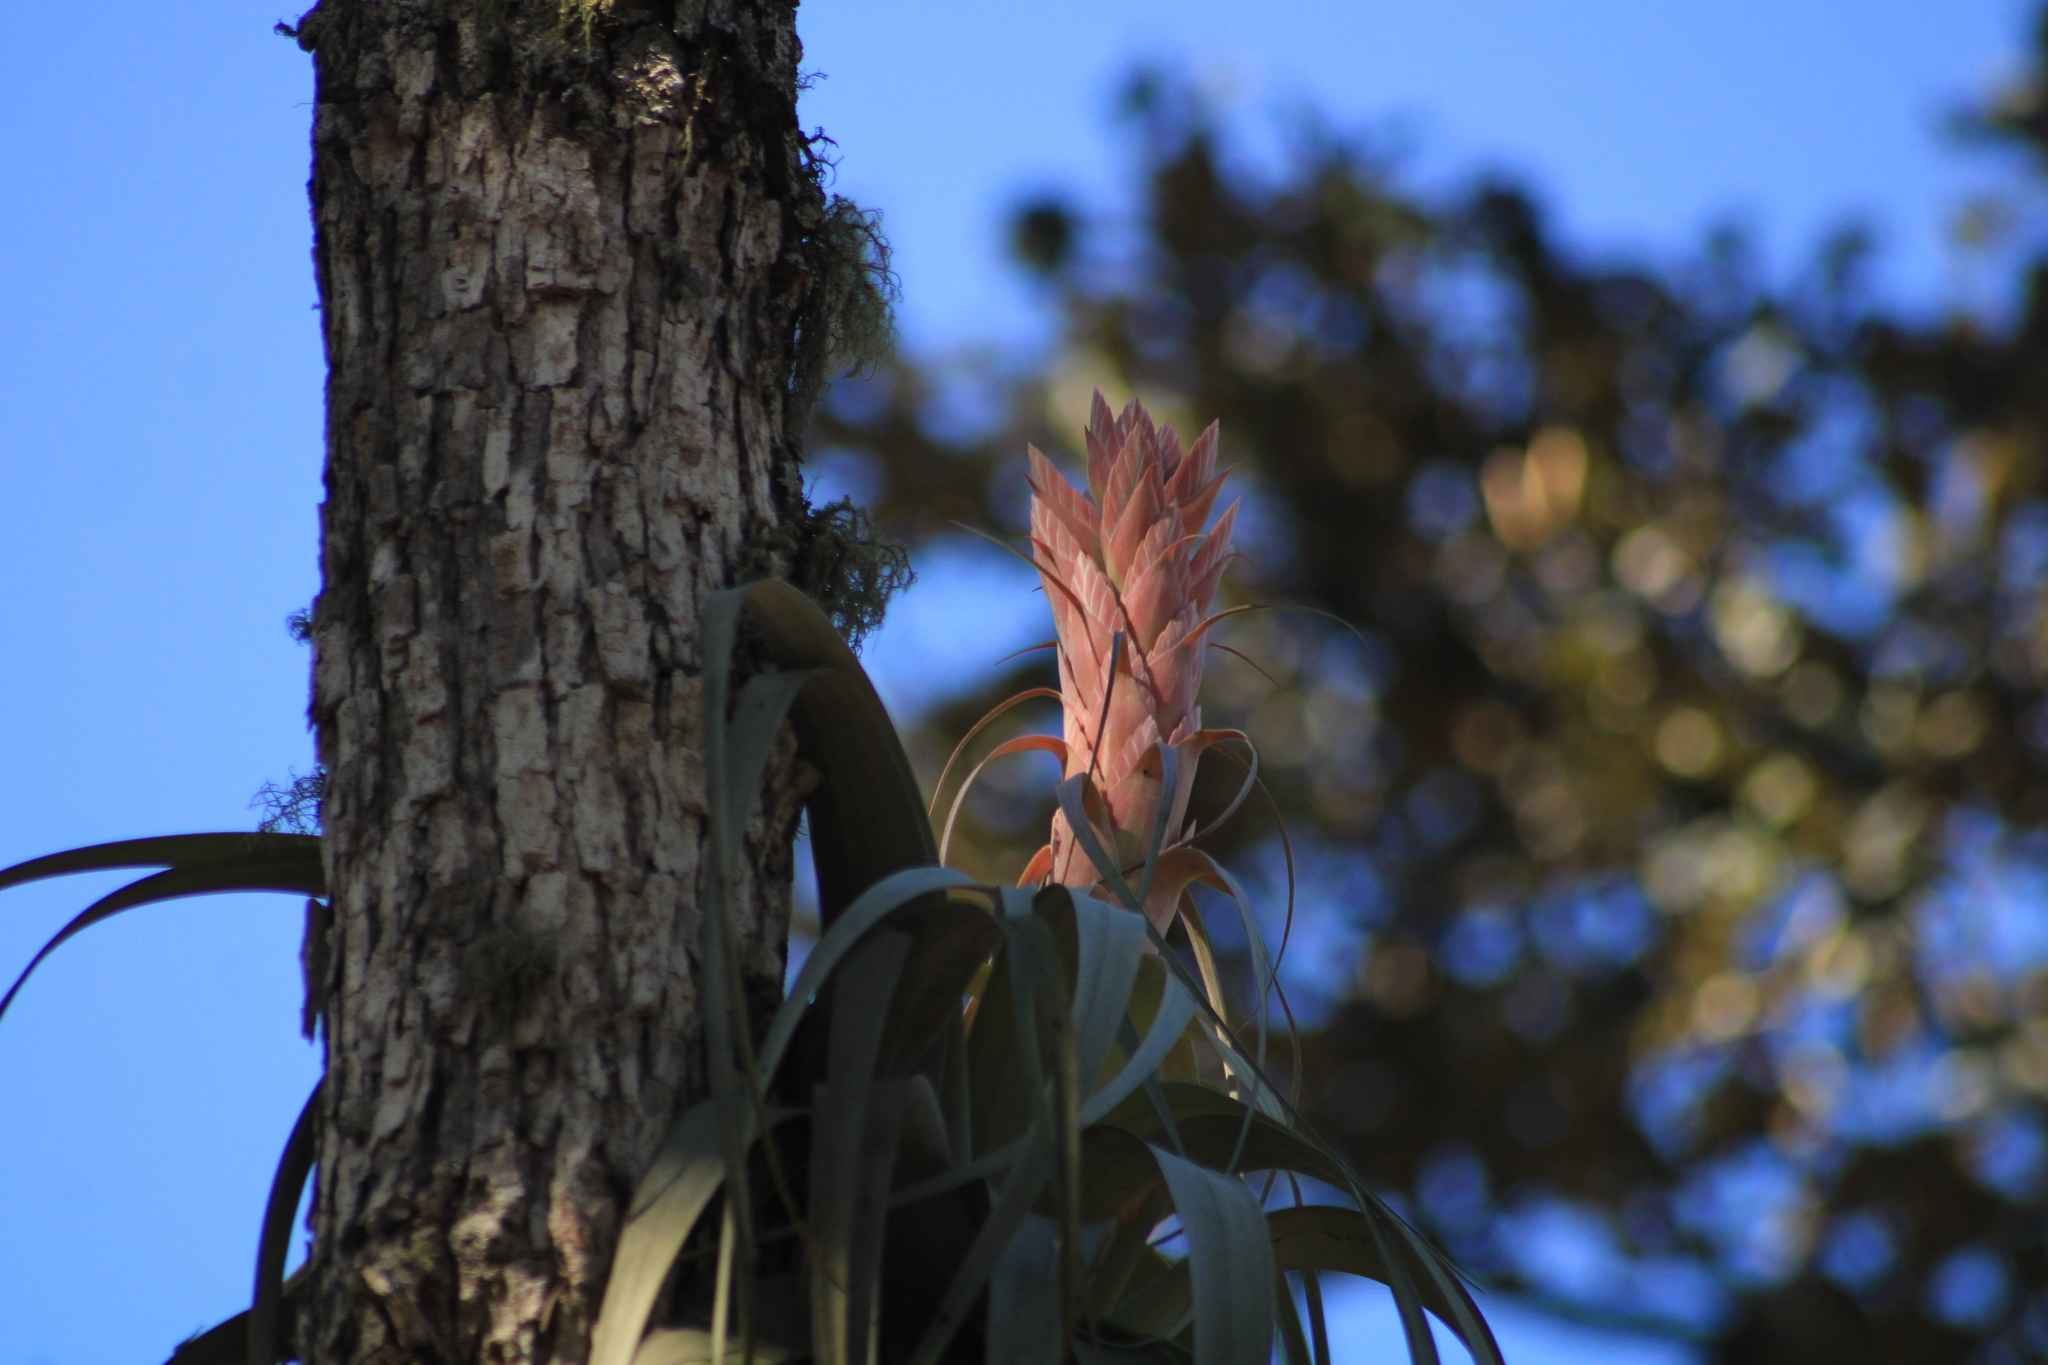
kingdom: Plantae
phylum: Tracheophyta
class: Liliopsida
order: Poales
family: Bromeliaceae
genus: Tillandsia
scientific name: Tillandsia bourgaei
